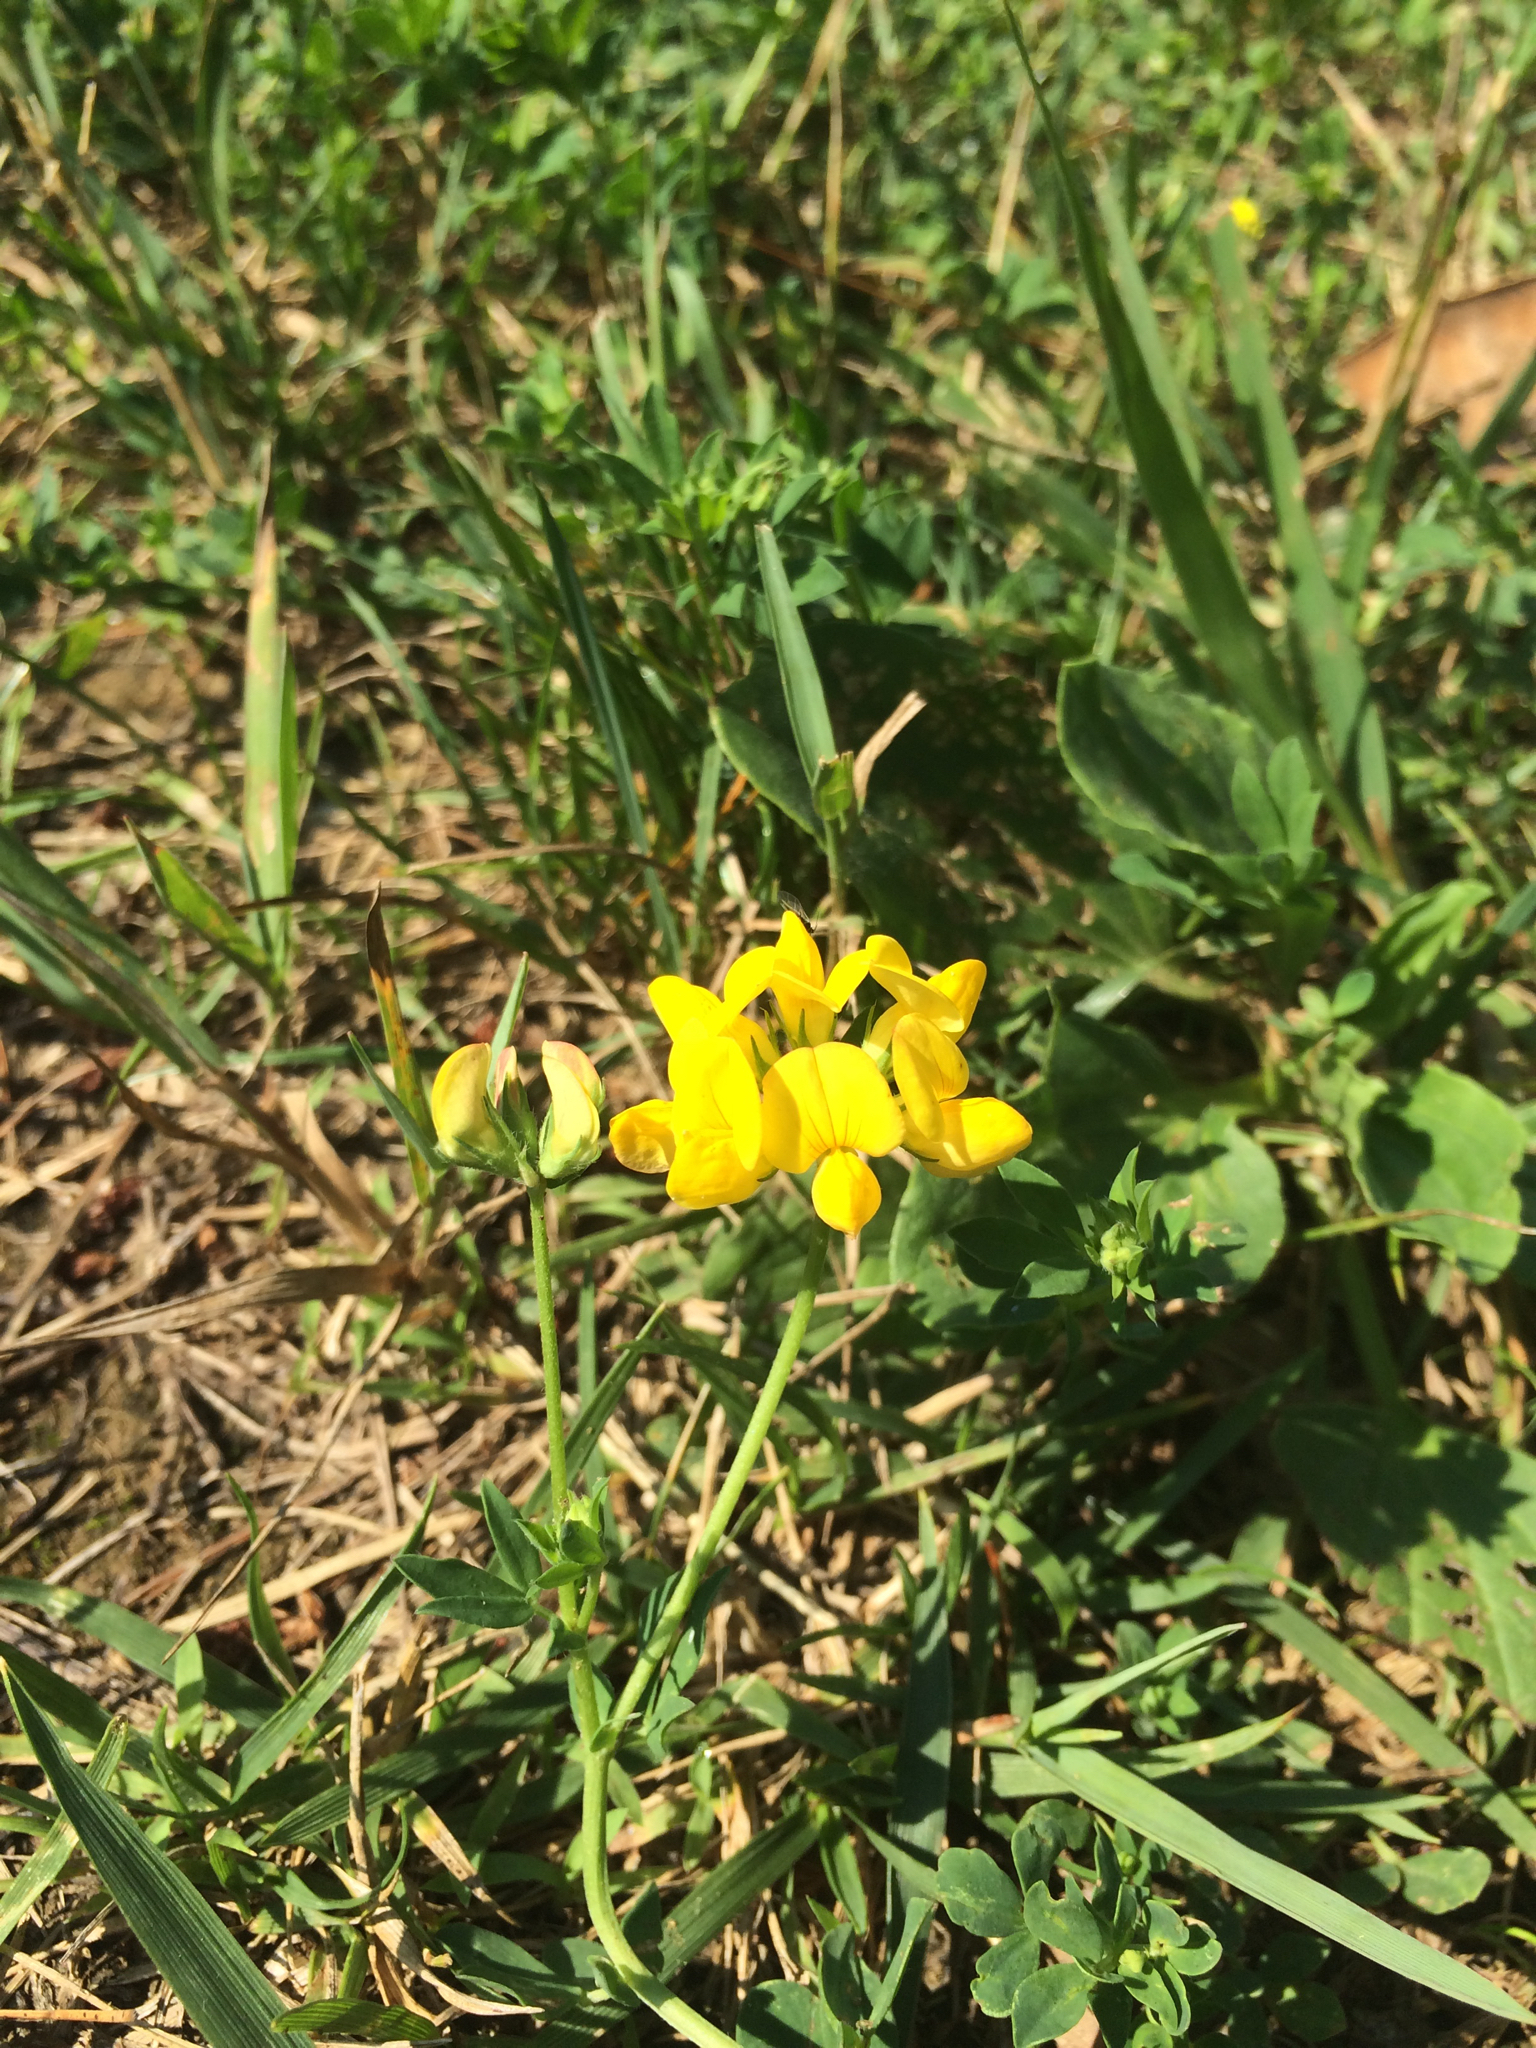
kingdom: Plantae
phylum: Tracheophyta
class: Magnoliopsida
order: Fabales
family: Fabaceae
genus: Lotus
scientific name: Lotus corniculatus
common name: Common bird's-foot-trefoil
